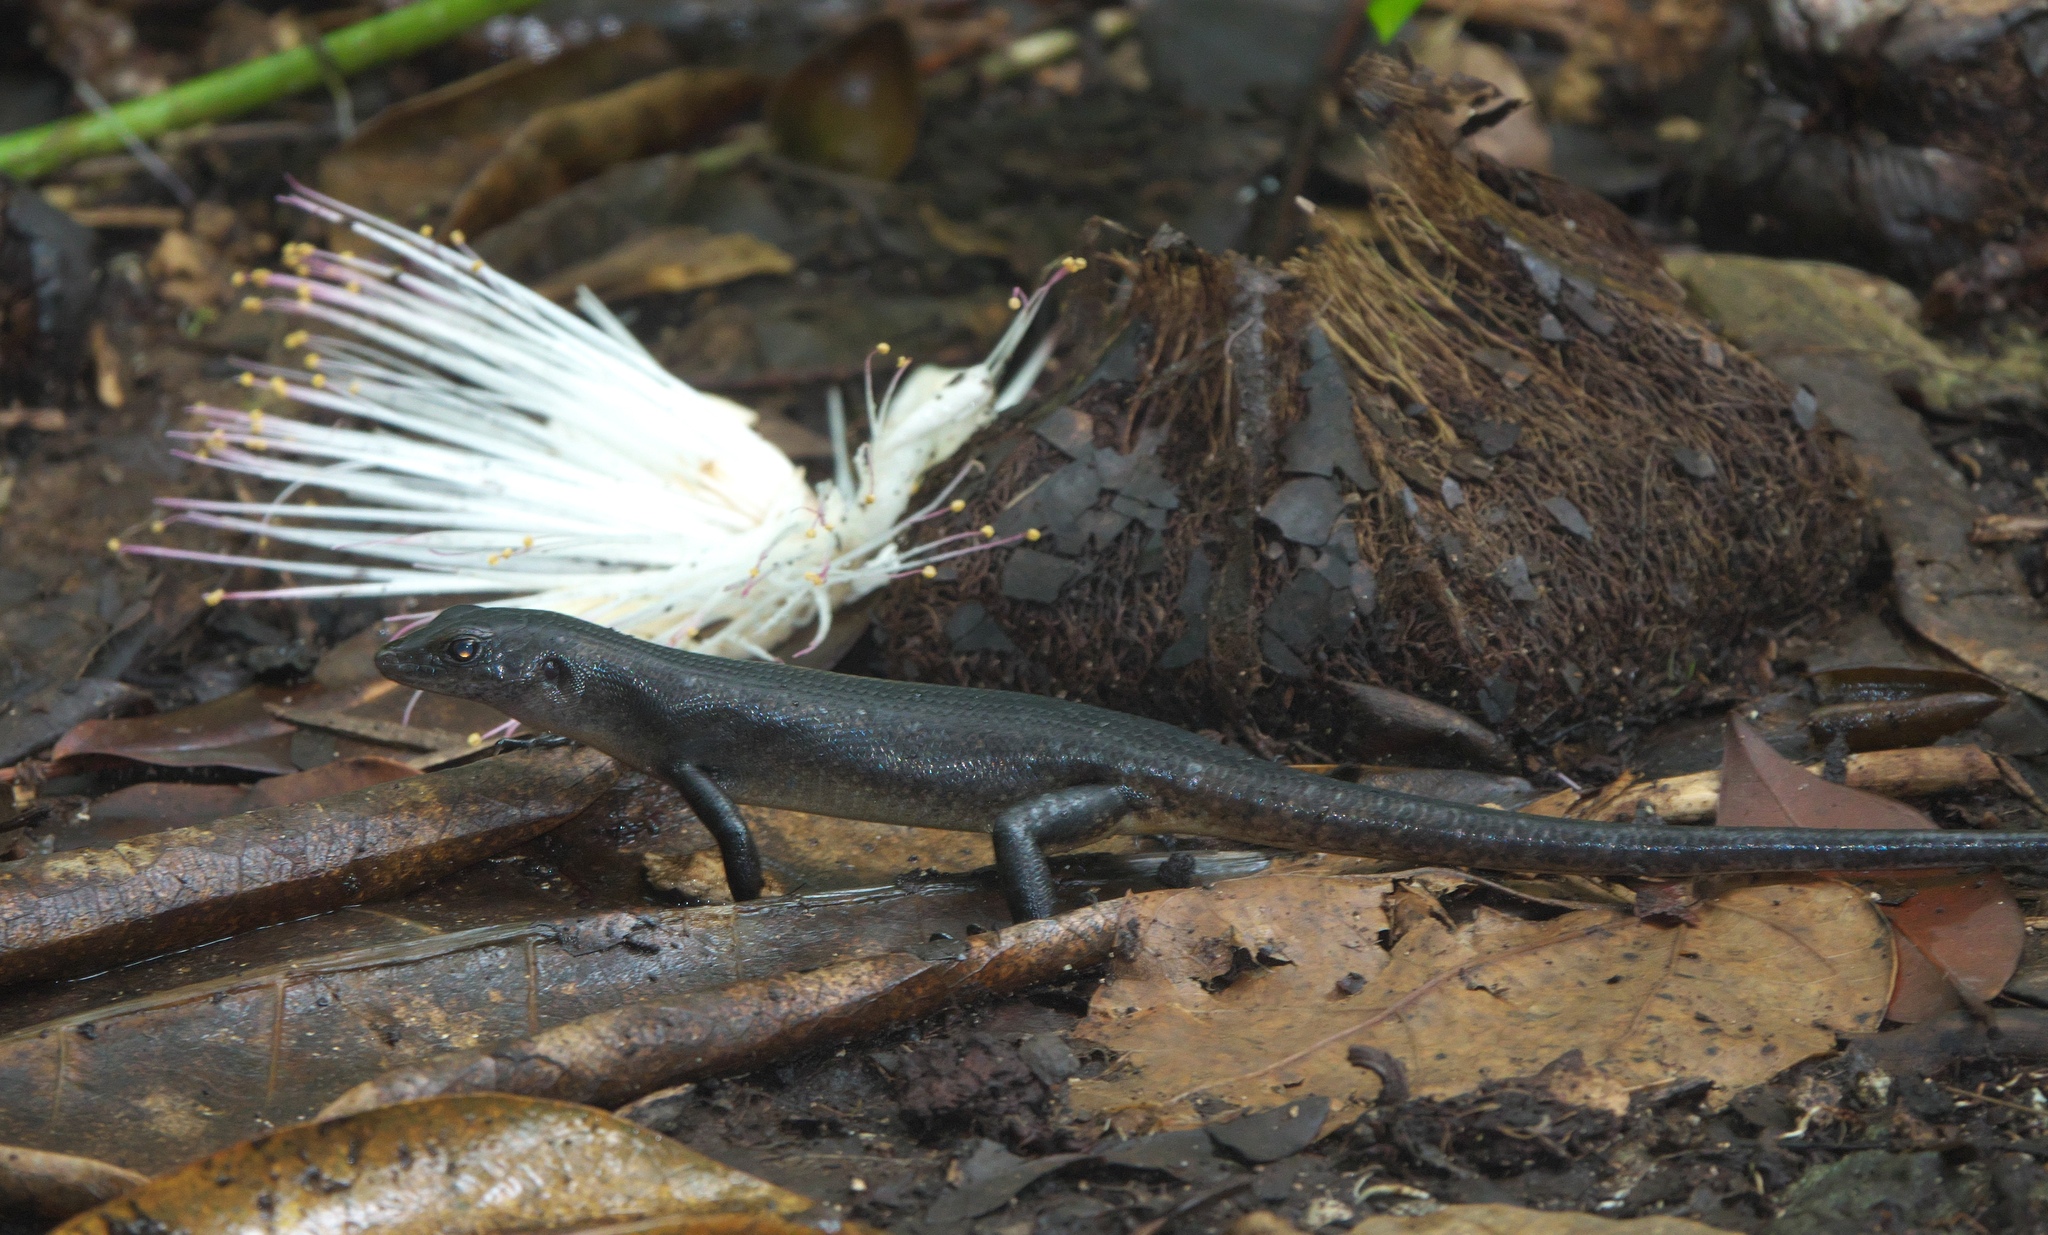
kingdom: Animalia
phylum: Chordata
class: Squamata
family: Scincidae
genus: Emoia
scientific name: Emoia nigra
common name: Black emo skink
